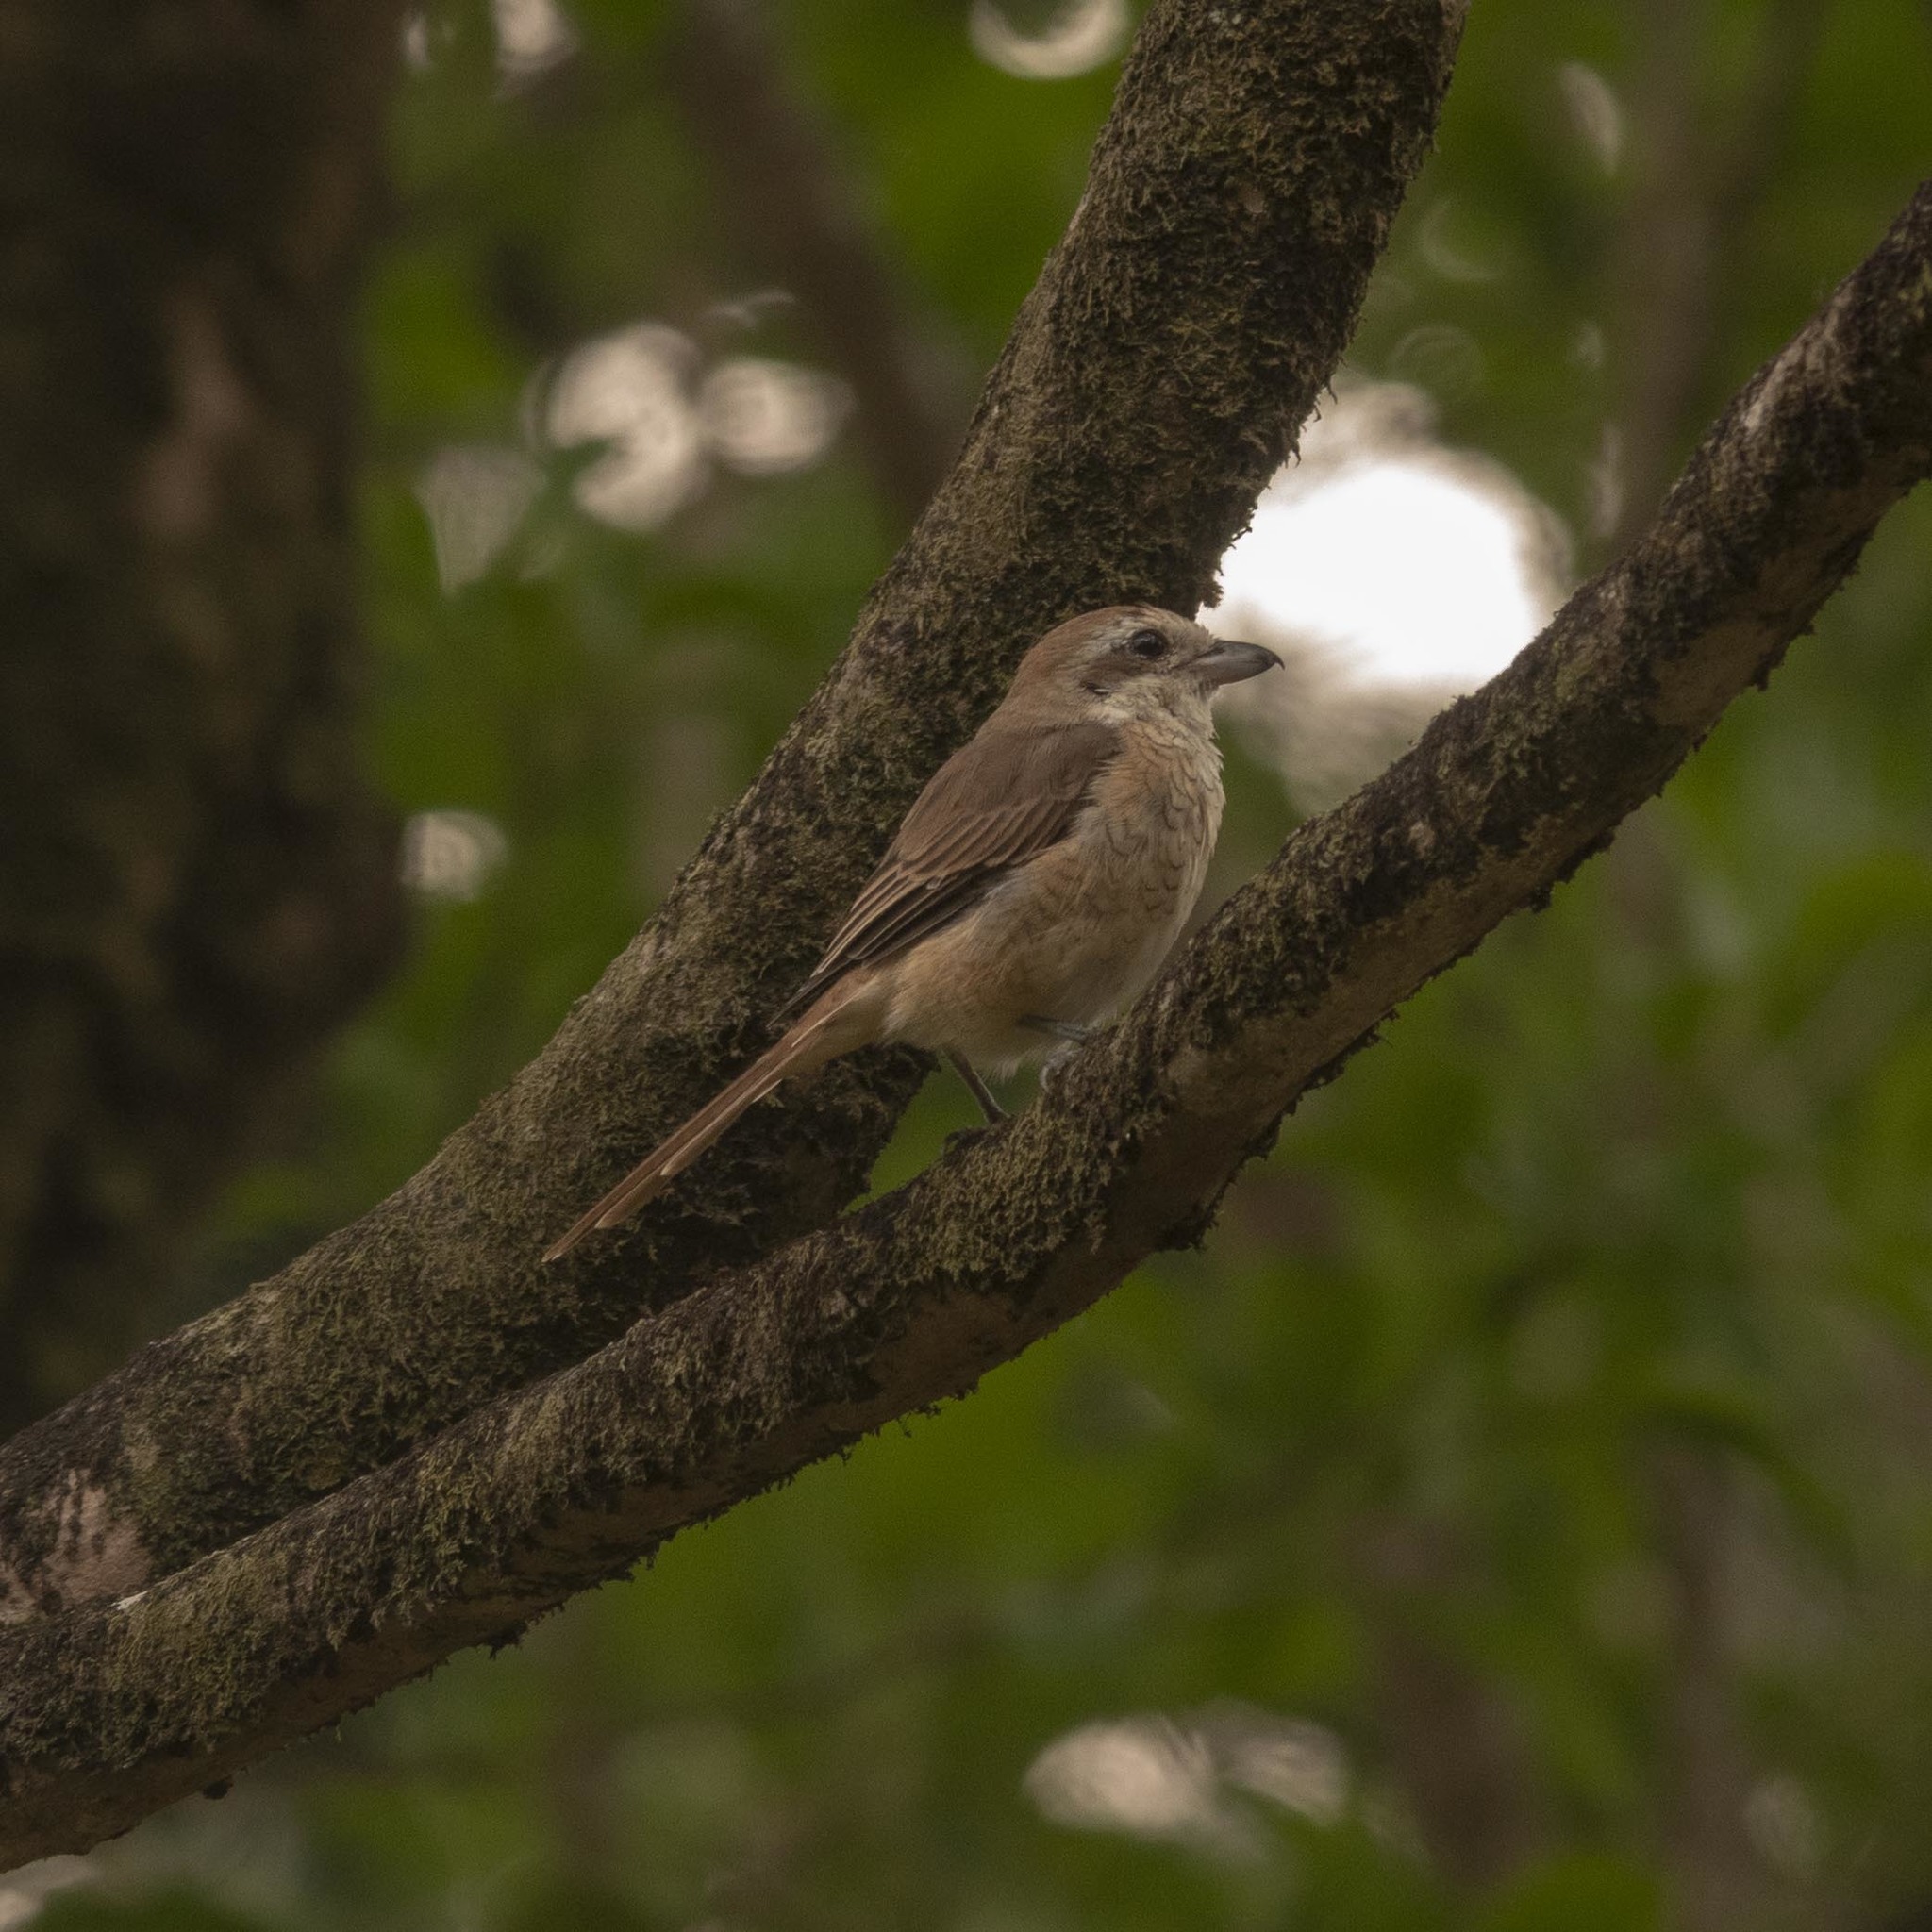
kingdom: Animalia
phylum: Chordata
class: Aves
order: Passeriformes
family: Laniidae
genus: Lanius
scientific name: Lanius cristatus
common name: Brown shrike
